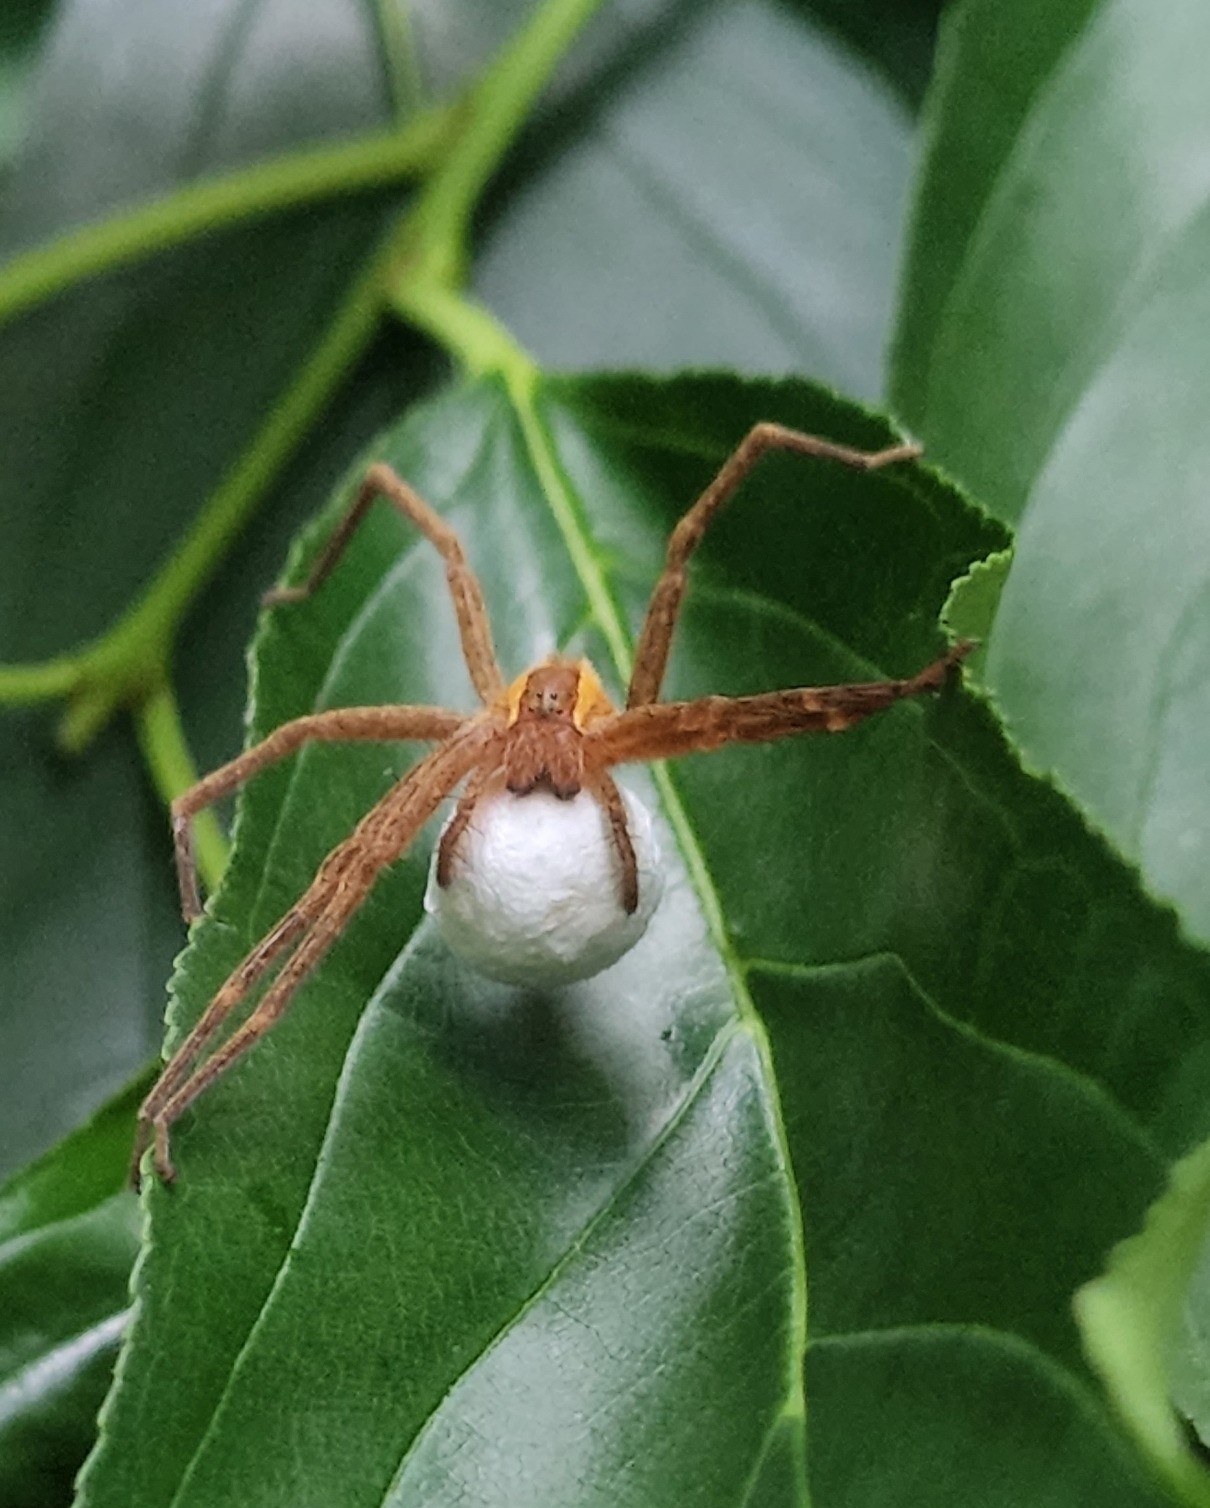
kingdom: Animalia
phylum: Arthropoda
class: Arachnida
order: Araneae
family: Pisauridae
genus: Pisaurina
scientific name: Pisaurina mira
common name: American nursery web spider
